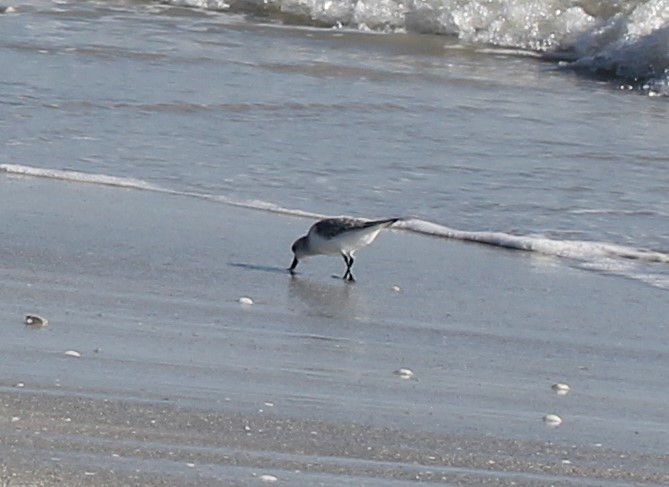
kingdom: Animalia
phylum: Chordata
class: Aves
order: Charadriiformes
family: Scolopacidae
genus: Calidris
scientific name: Calidris alba
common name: Sanderling
